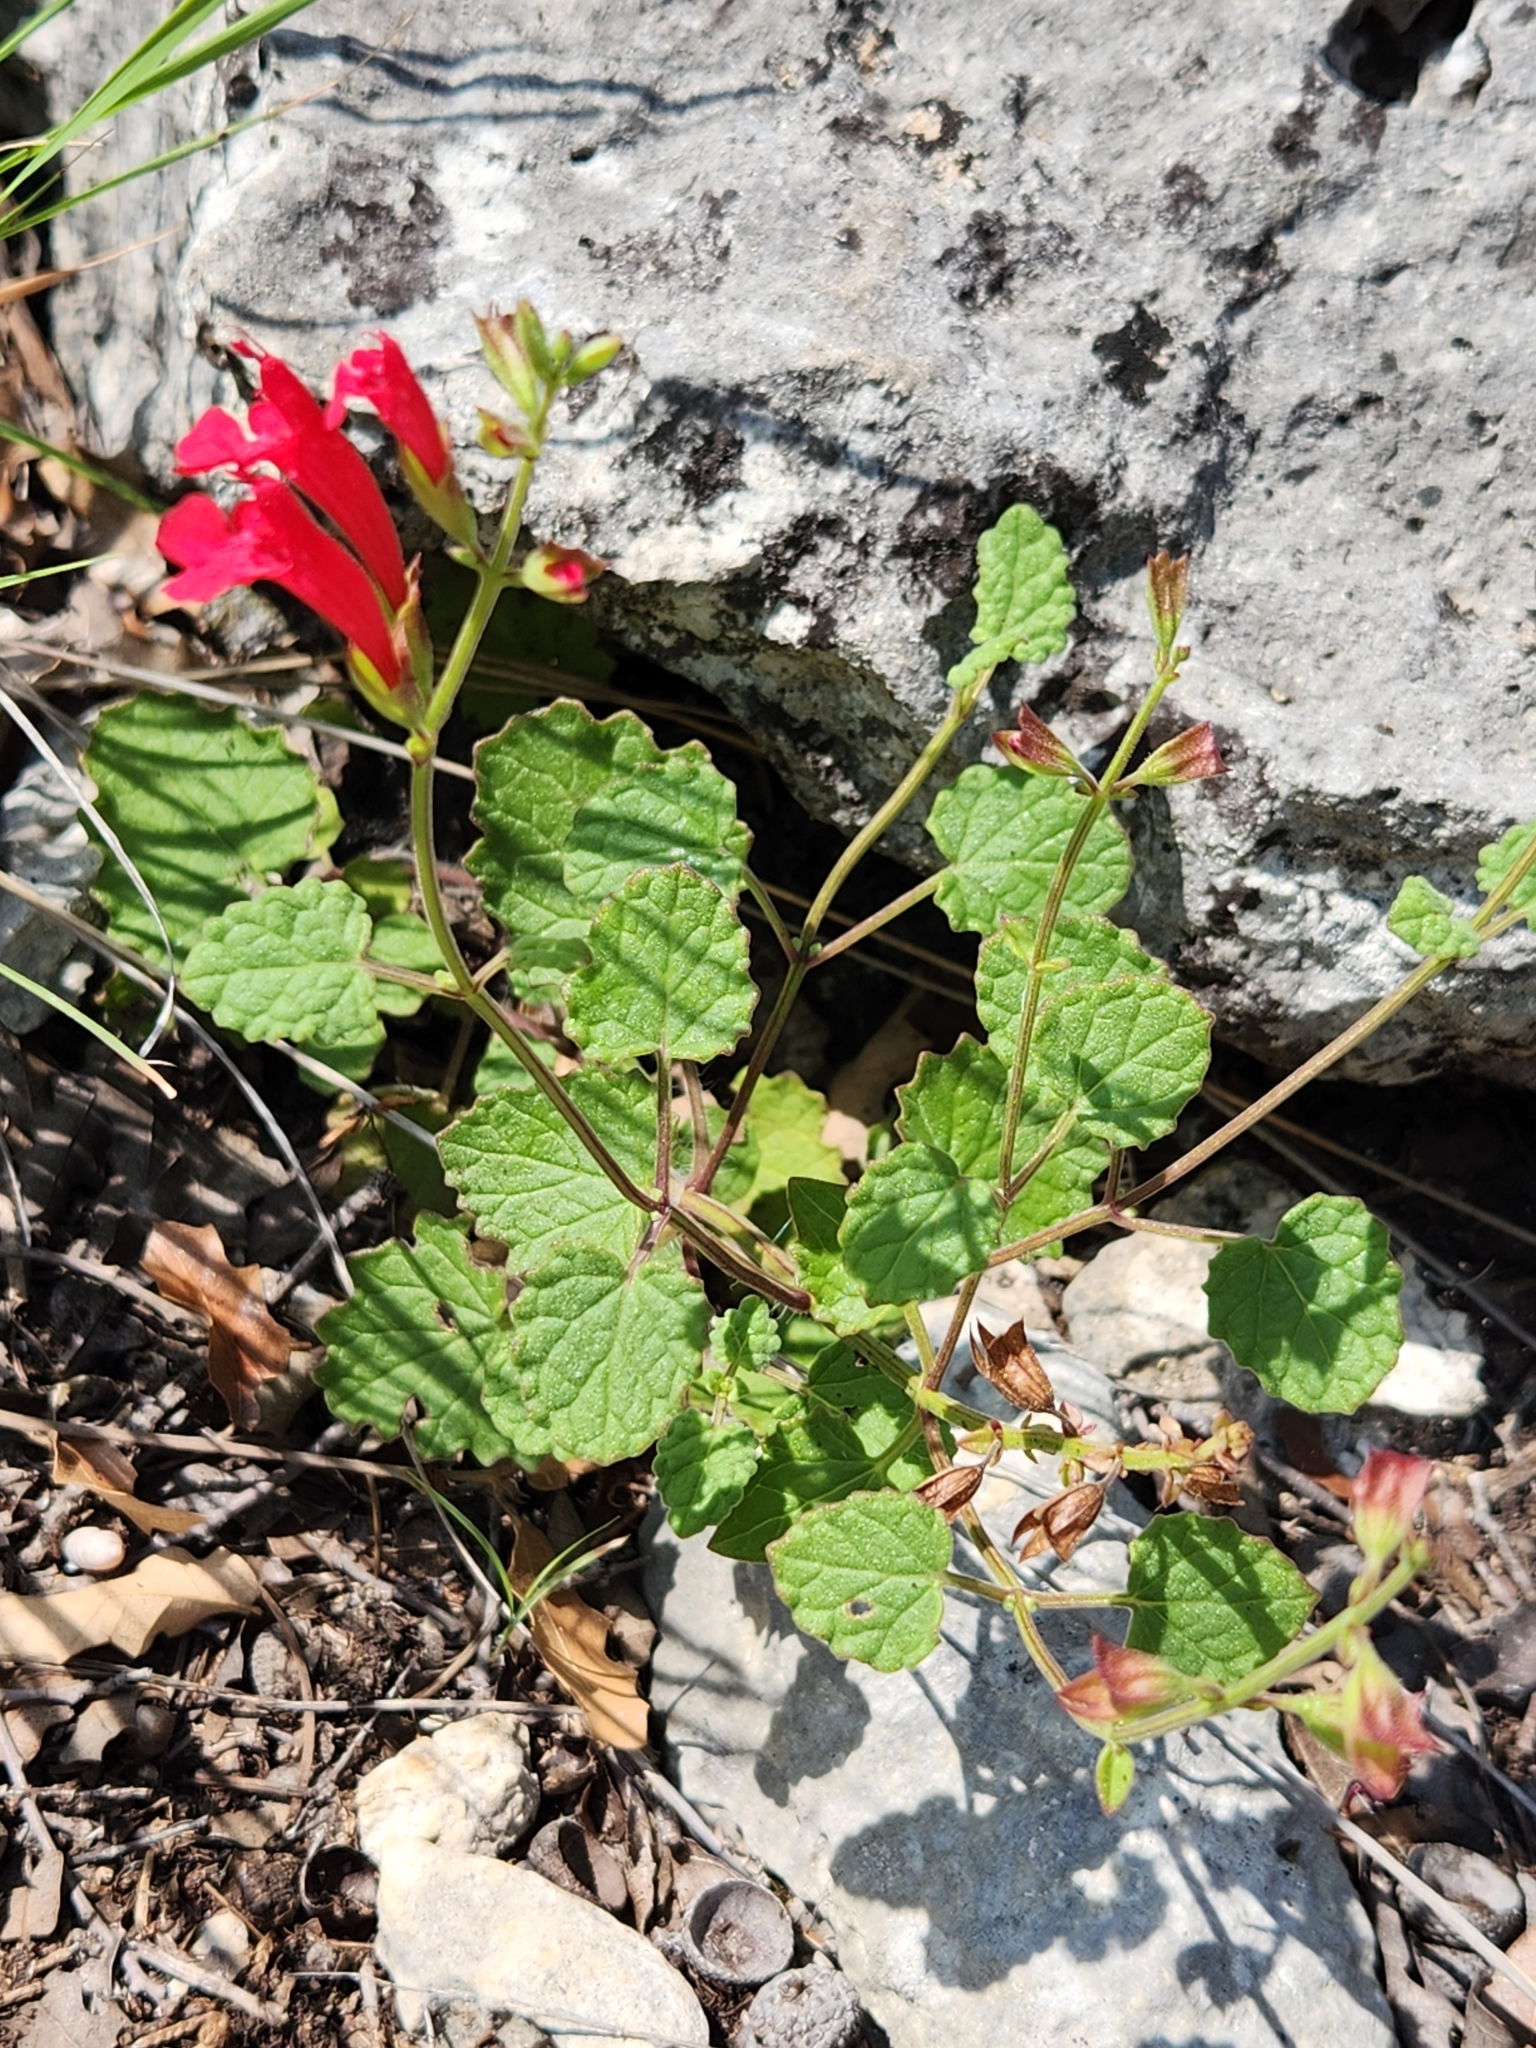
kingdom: Plantae
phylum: Tracheophyta
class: Magnoliopsida
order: Lamiales
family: Lamiaceae
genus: Salvia
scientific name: Salvia roemeriana
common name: Cedar sage
